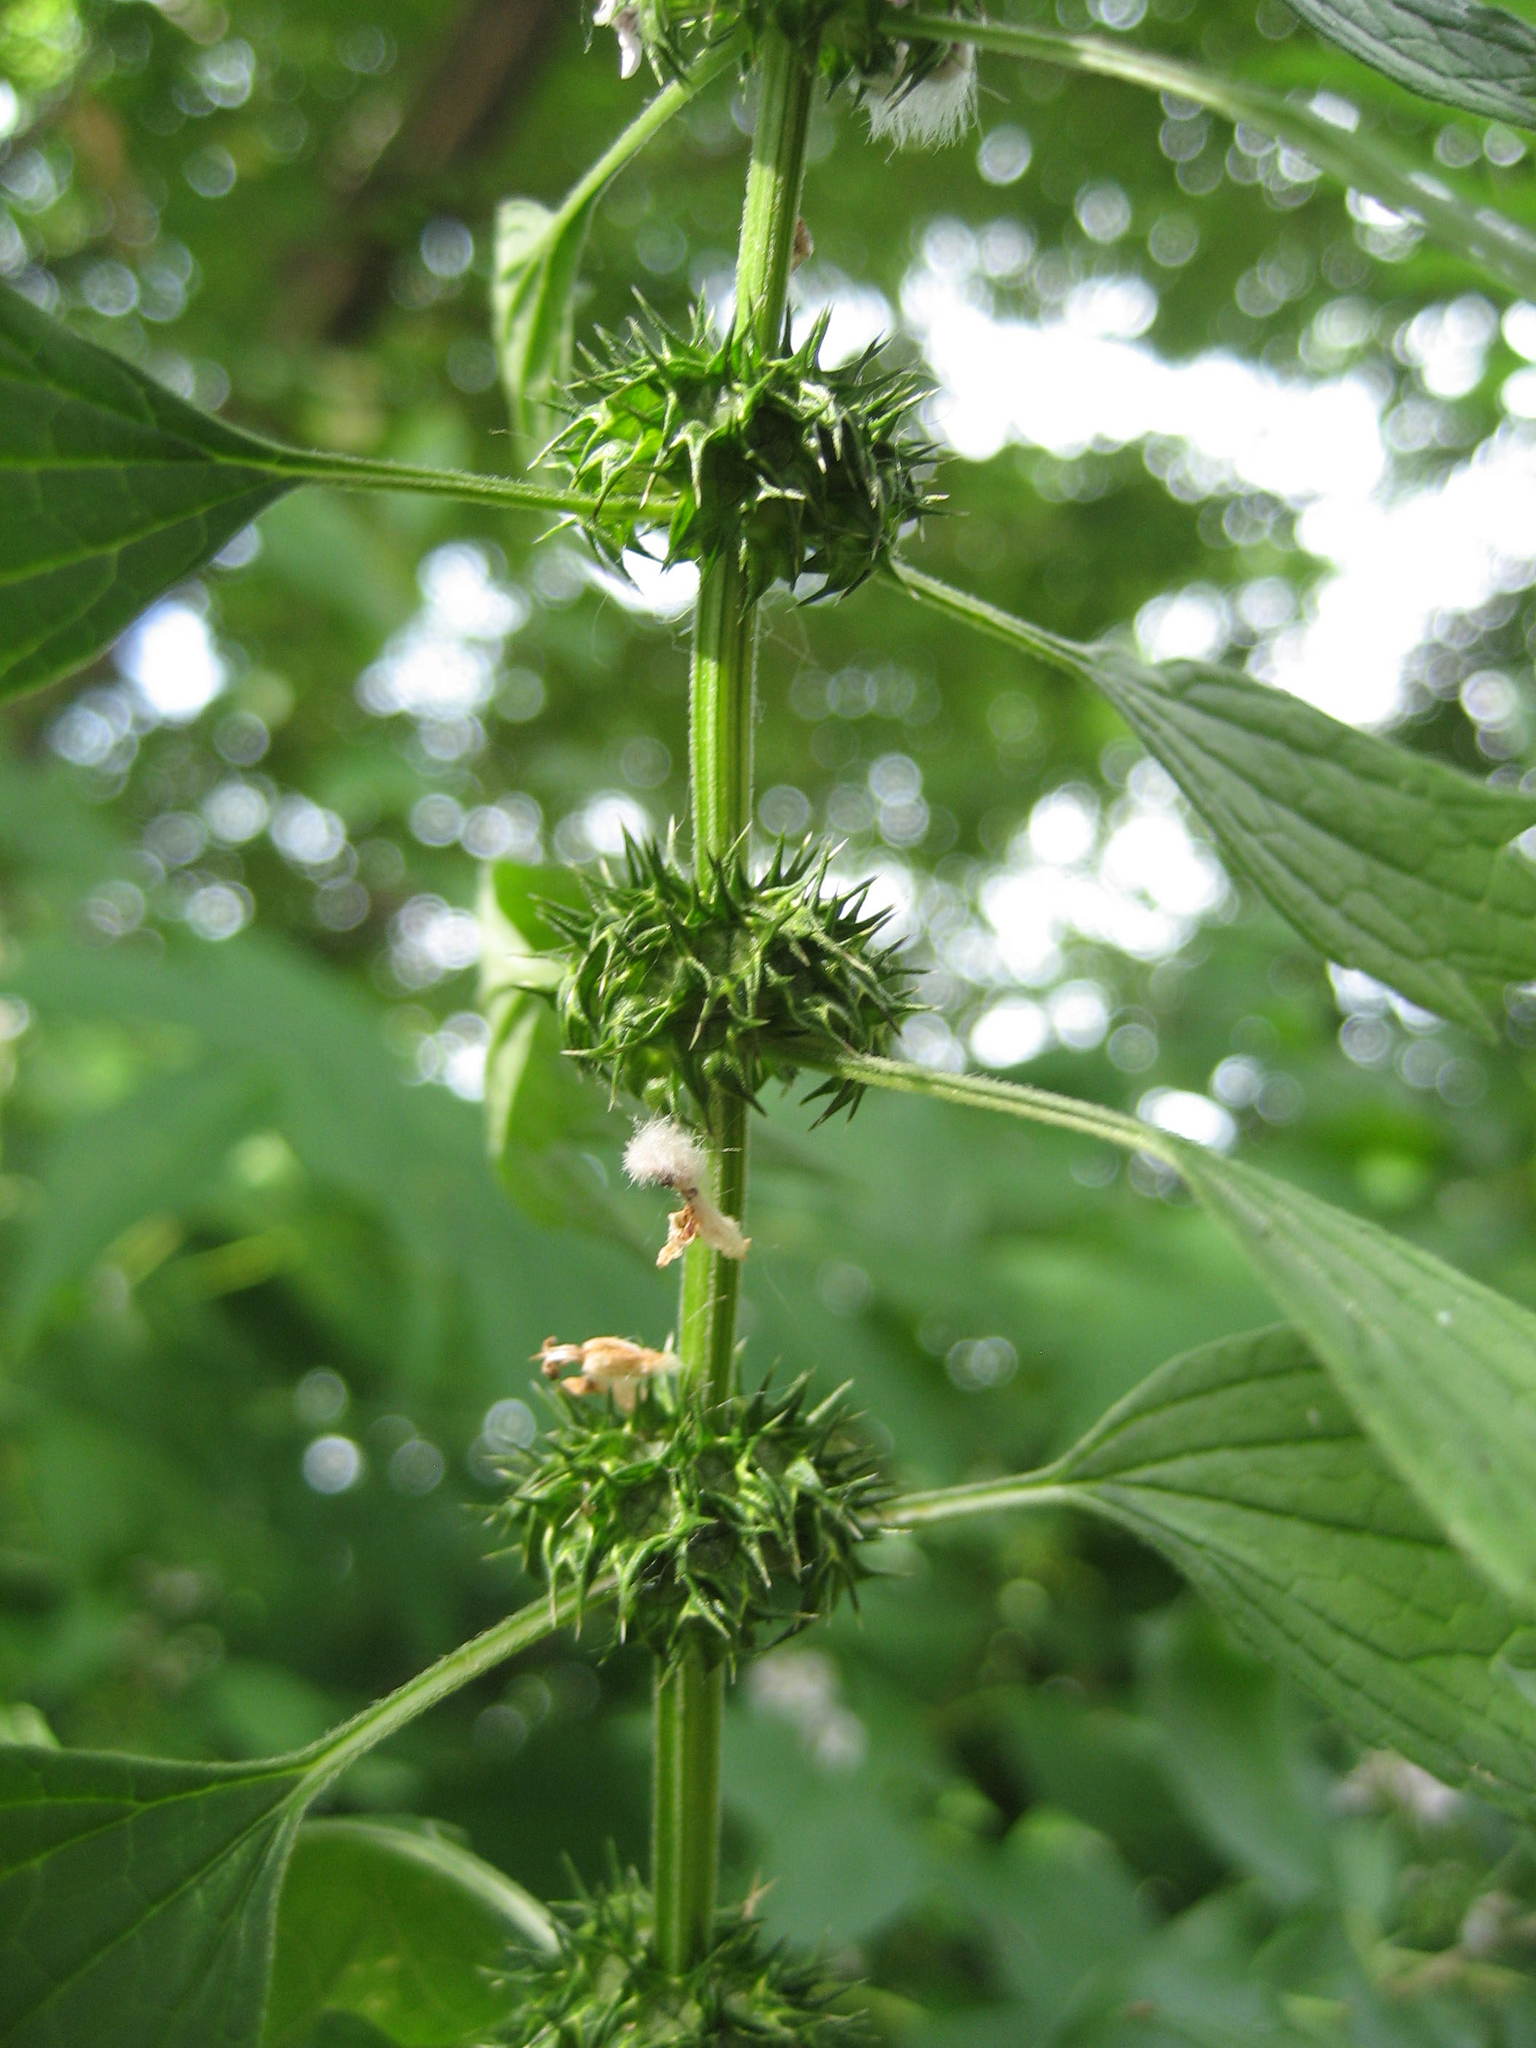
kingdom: Plantae
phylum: Tracheophyta
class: Magnoliopsida
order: Lamiales
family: Lamiaceae
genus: Leonurus
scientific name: Leonurus cardiaca
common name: Motherwort
